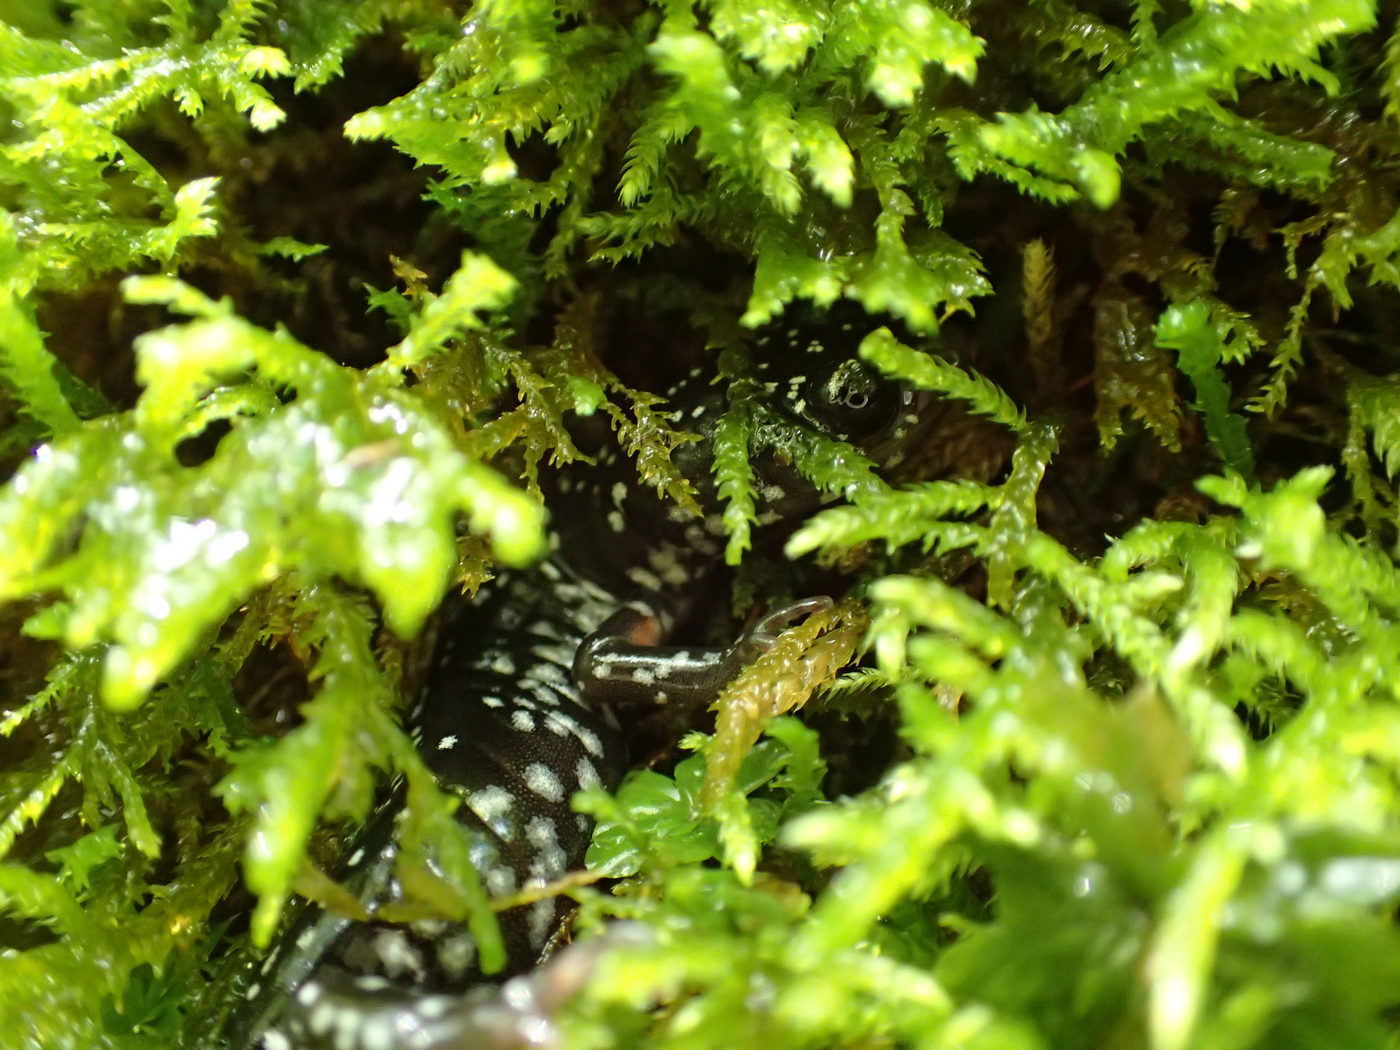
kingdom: Animalia
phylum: Chordata
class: Amphibia
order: Caudata
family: Plethodontidae
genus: Plethodon
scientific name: Plethodon yonahlossee
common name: Yonahlossee salamander
